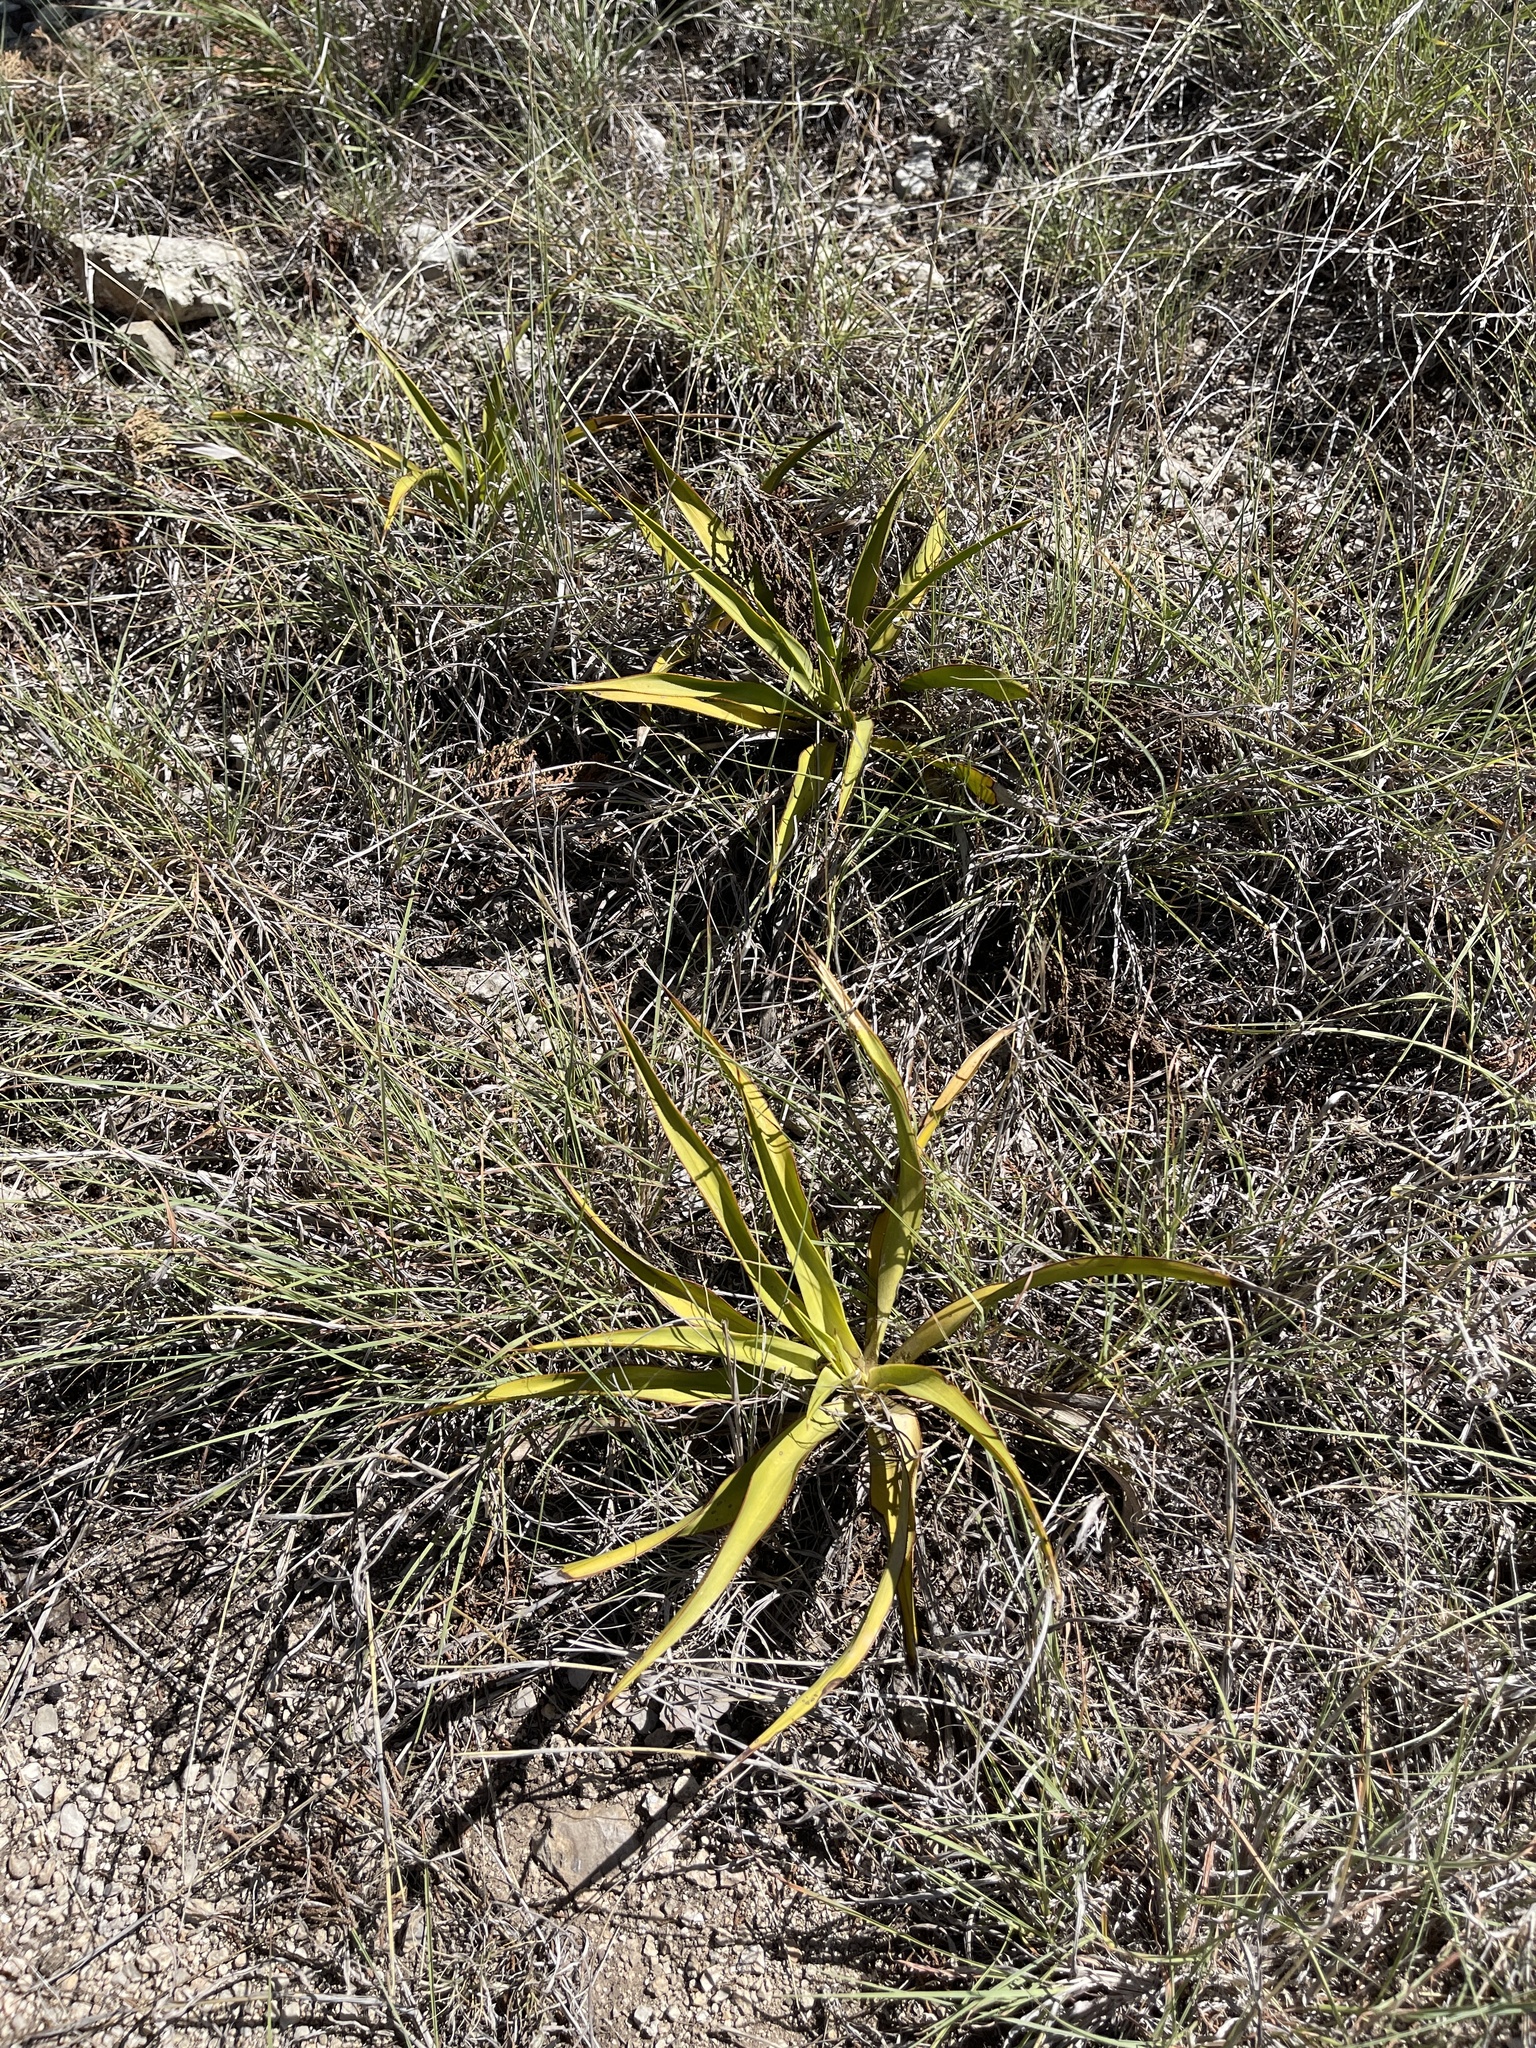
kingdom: Plantae
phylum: Tracheophyta
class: Liliopsida
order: Asparagales
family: Asparagaceae
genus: Yucca
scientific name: Yucca rupicola
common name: Twisted-leaf spanish-dagger
